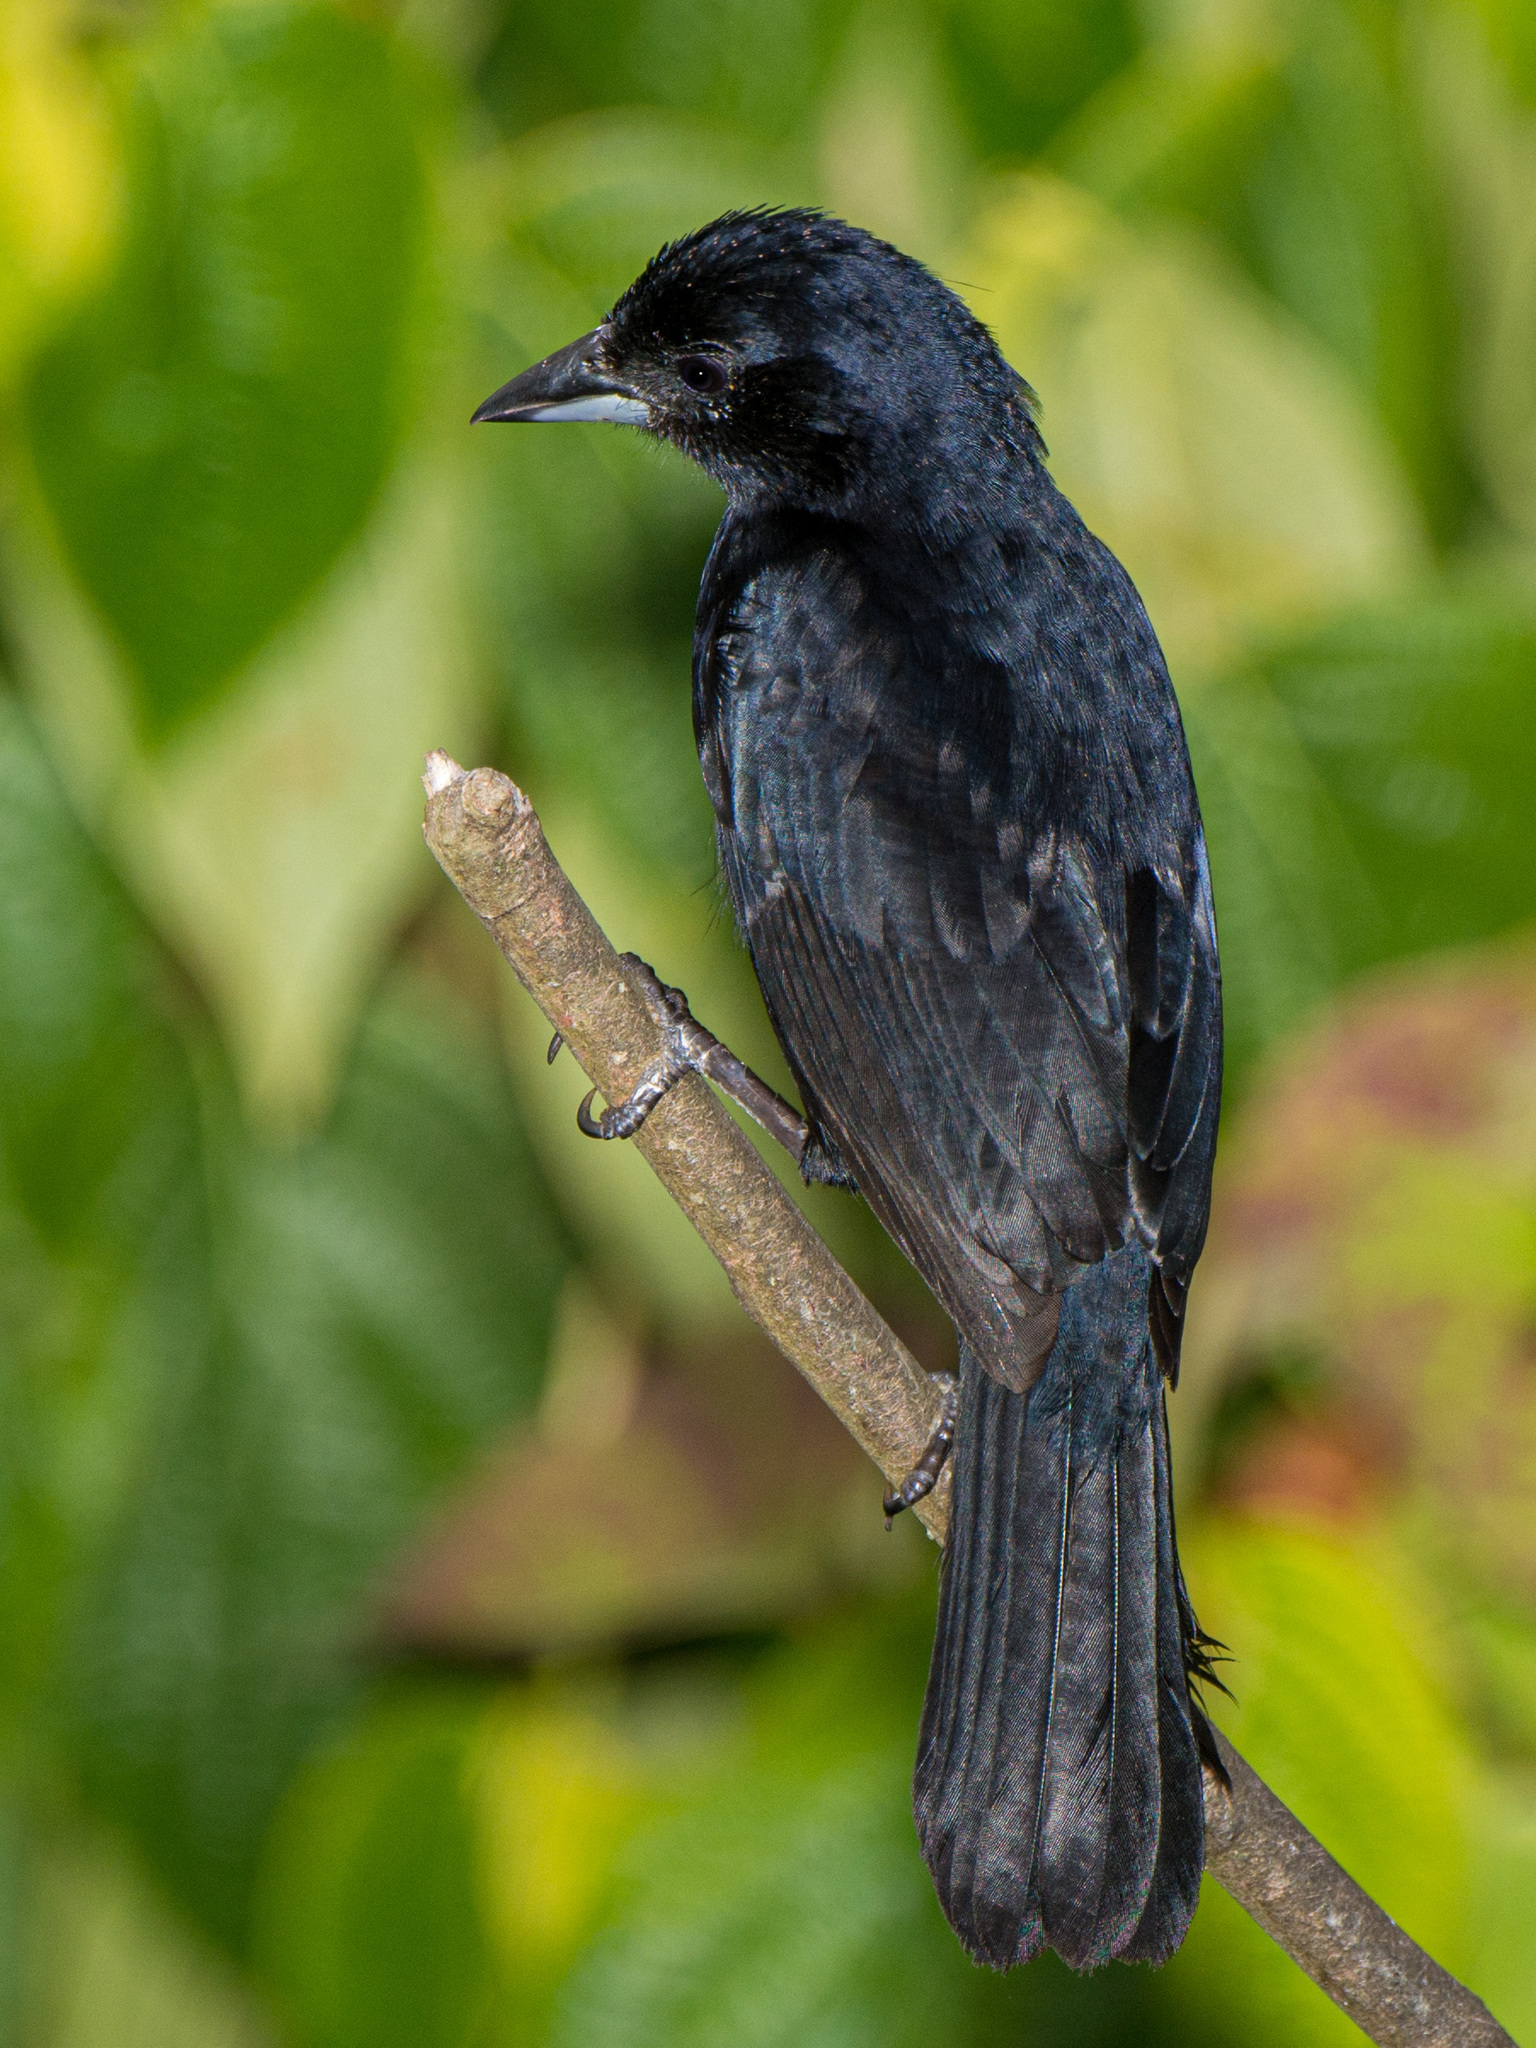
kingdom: Animalia
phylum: Chordata
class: Aves
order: Passeriformes
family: Thraupidae
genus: Tachyphonus
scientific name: Tachyphonus rufus
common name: White-lined tanager
